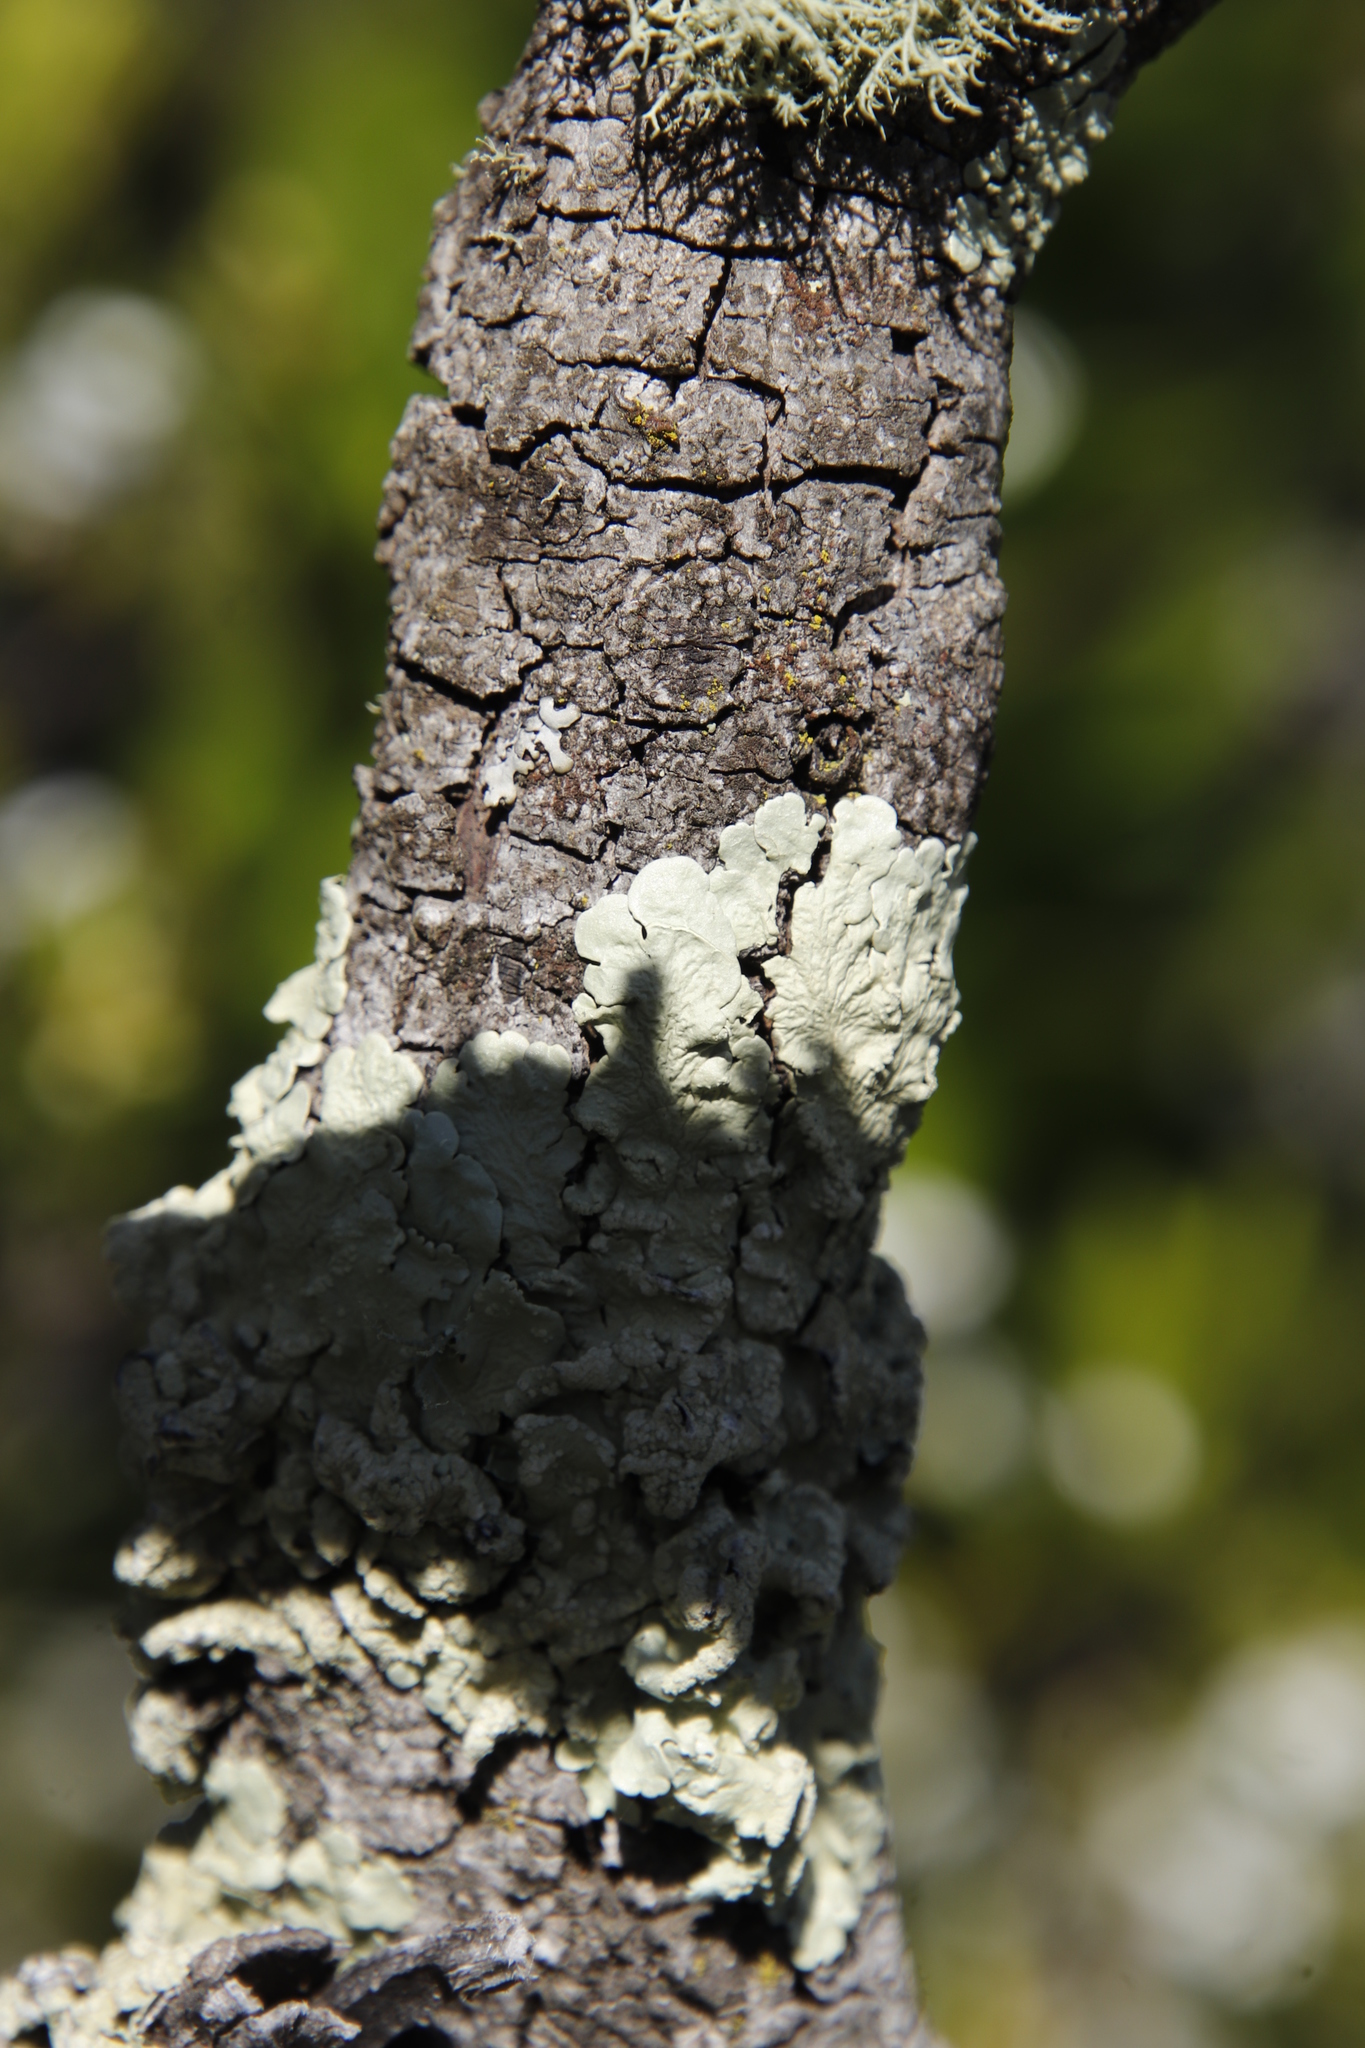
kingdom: Fungi
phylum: Ascomycota
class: Lecanoromycetes
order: Lecanorales
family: Parmeliaceae
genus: Flavoparmelia
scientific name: Flavoparmelia soredians
